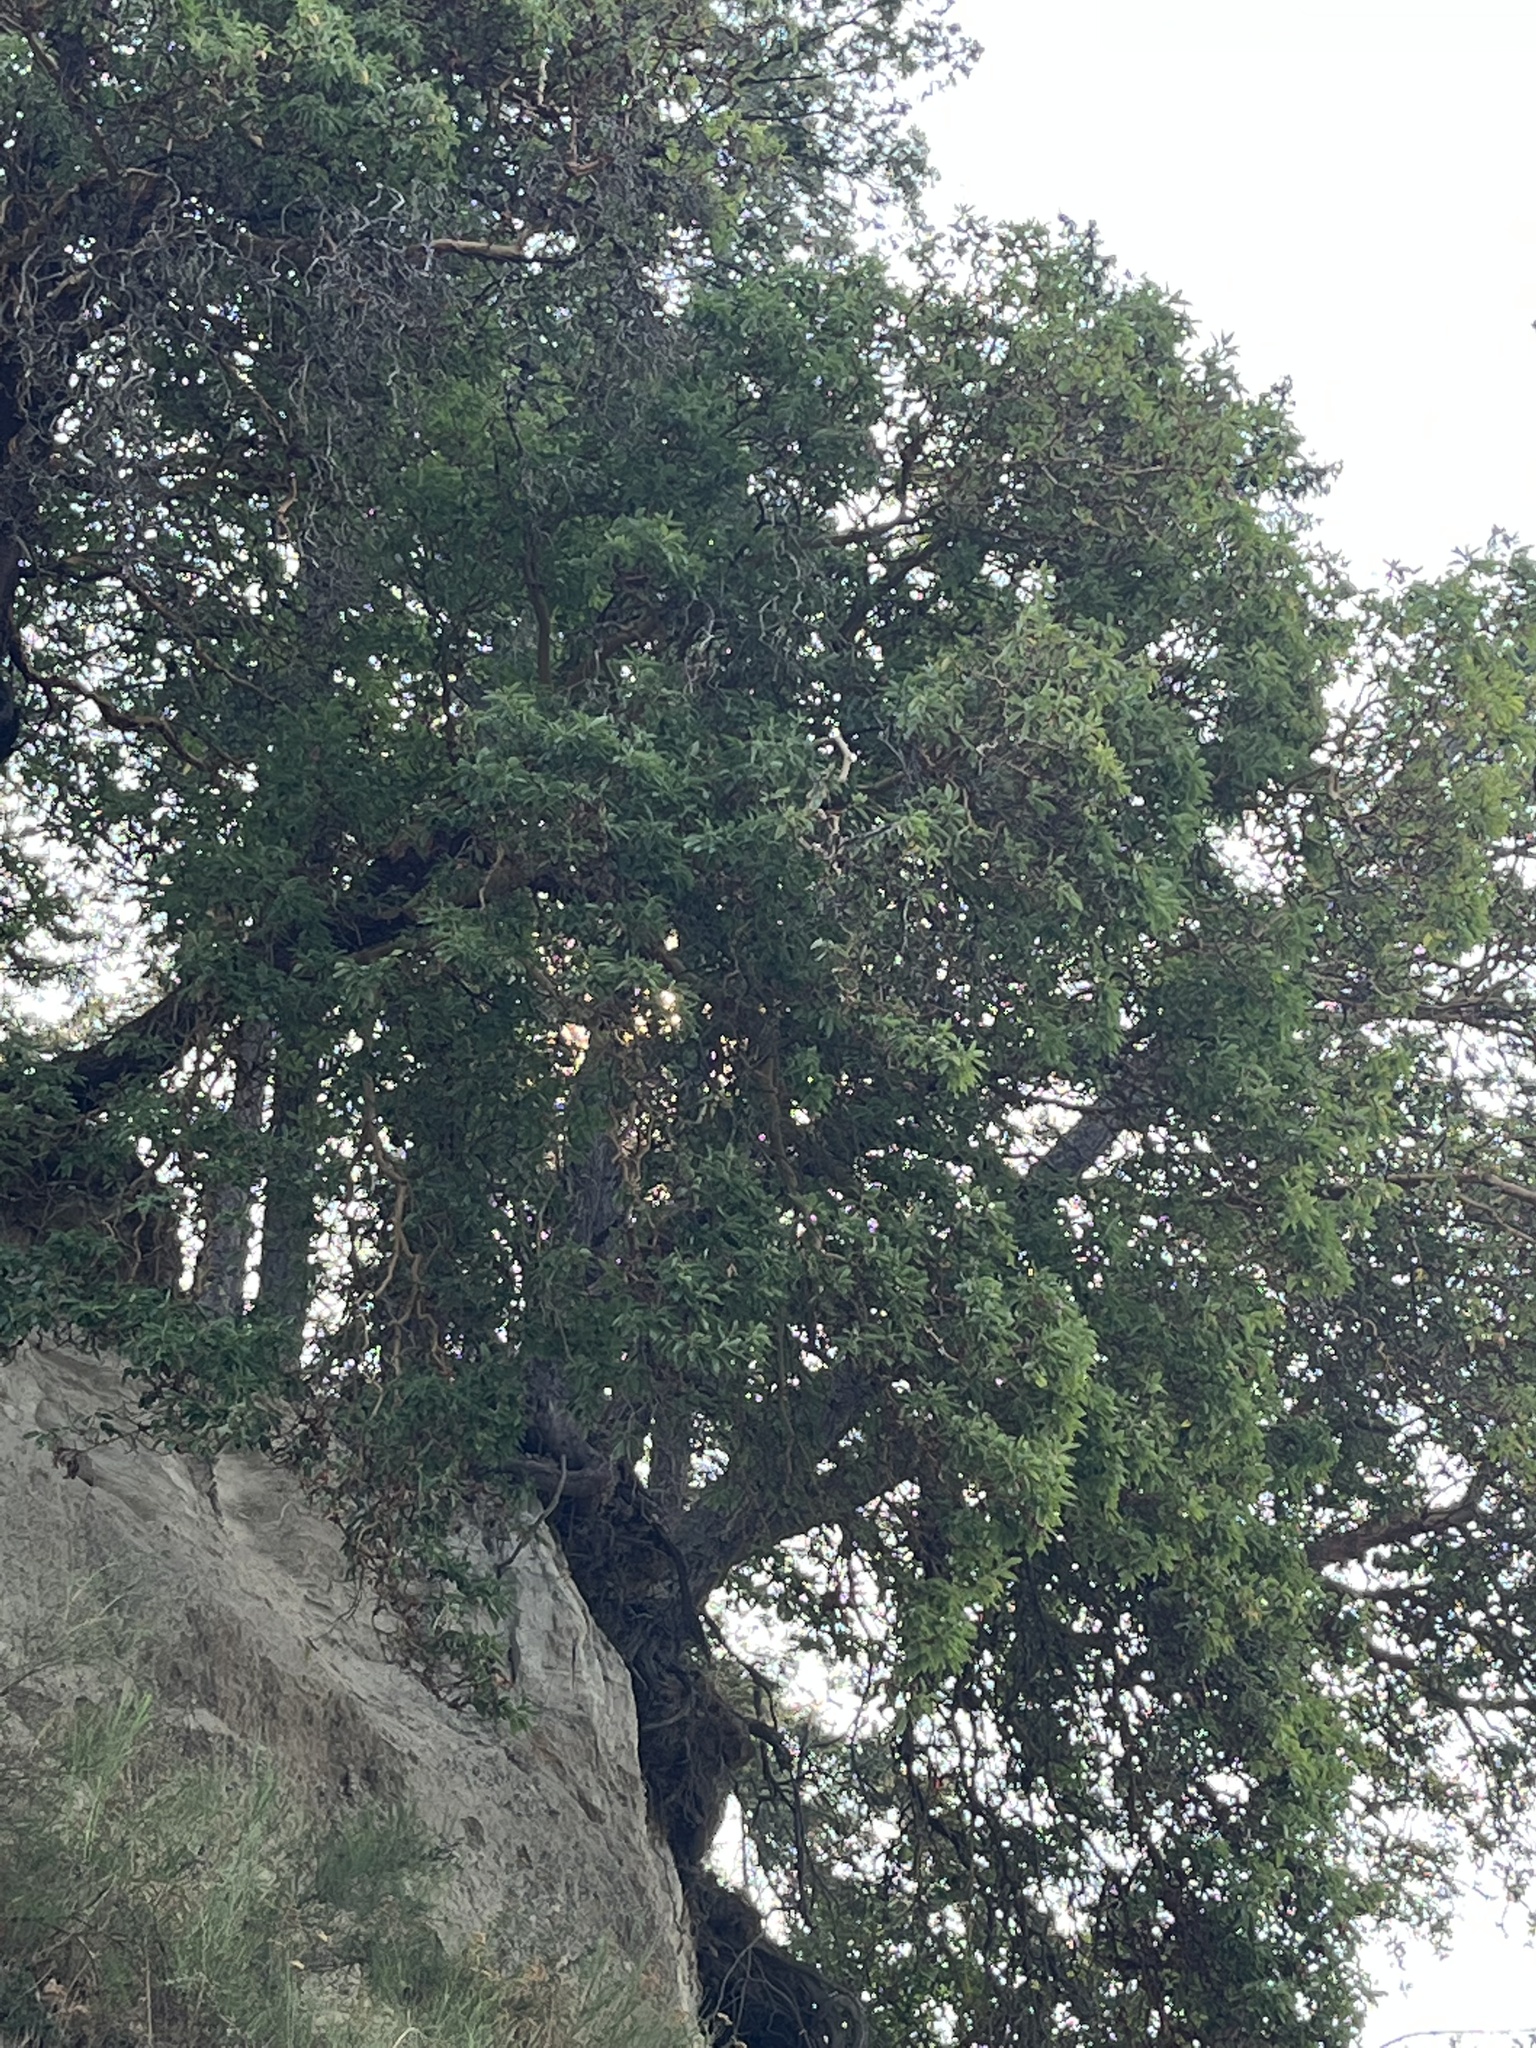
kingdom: Plantae
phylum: Tracheophyta
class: Magnoliopsida
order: Ericales
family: Ericaceae
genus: Arbutus
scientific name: Arbutus menziesii
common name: Pacific madrone
